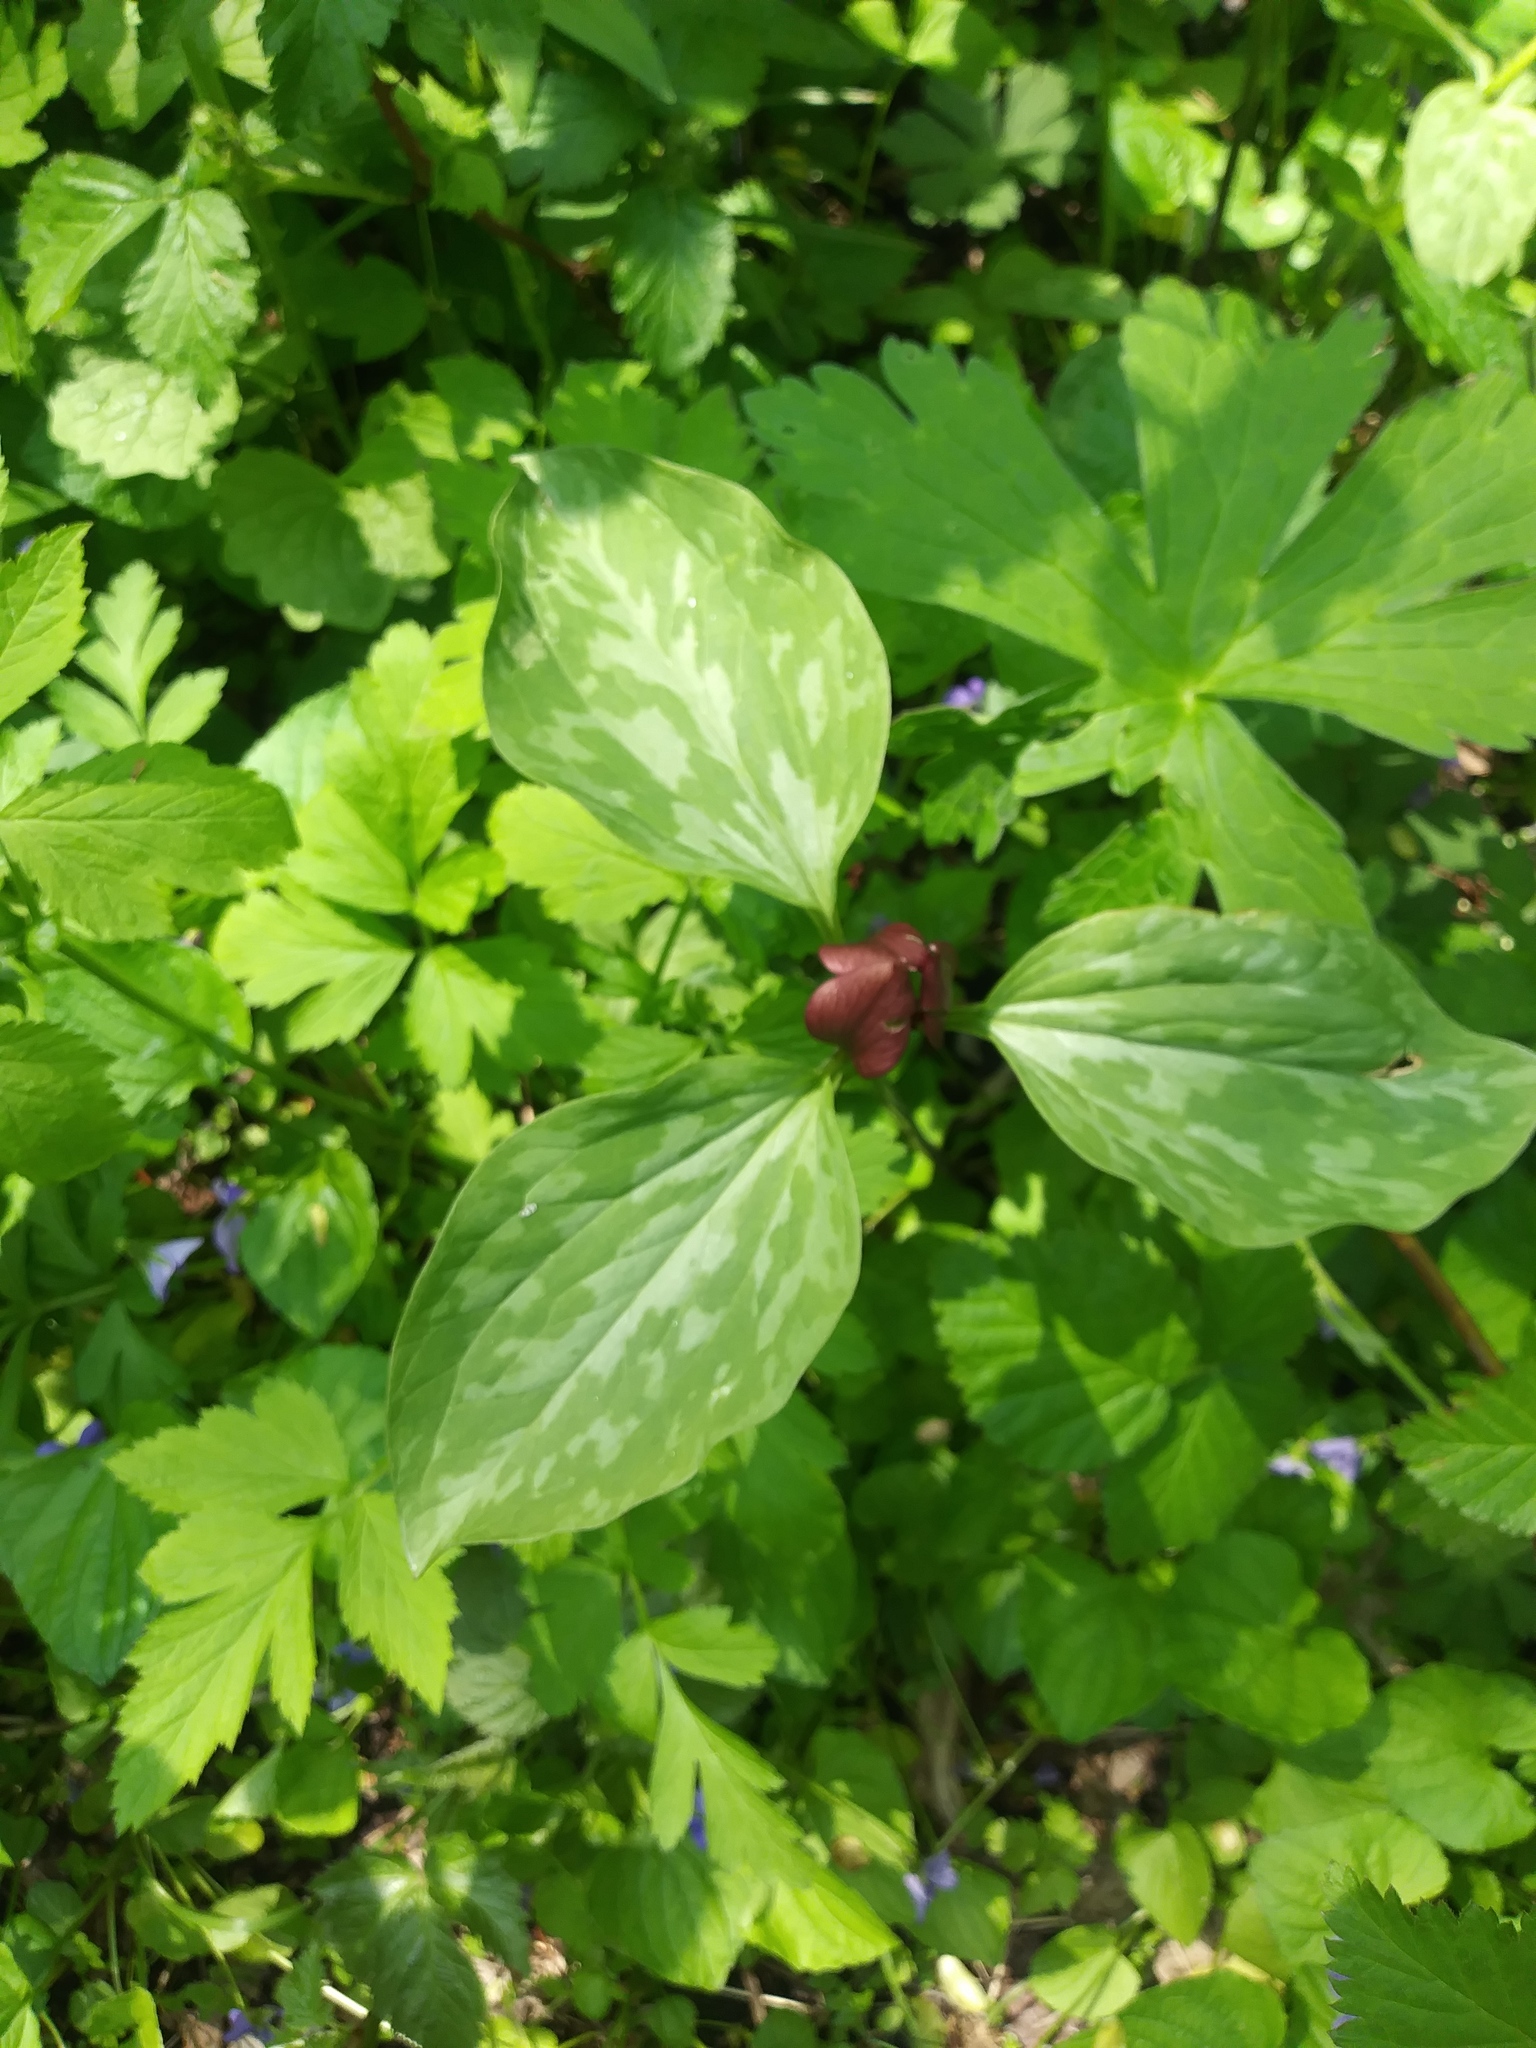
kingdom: Plantae
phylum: Tracheophyta
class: Liliopsida
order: Liliales
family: Melanthiaceae
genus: Trillium
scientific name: Trillium recurvatum
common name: Bloody butcher
